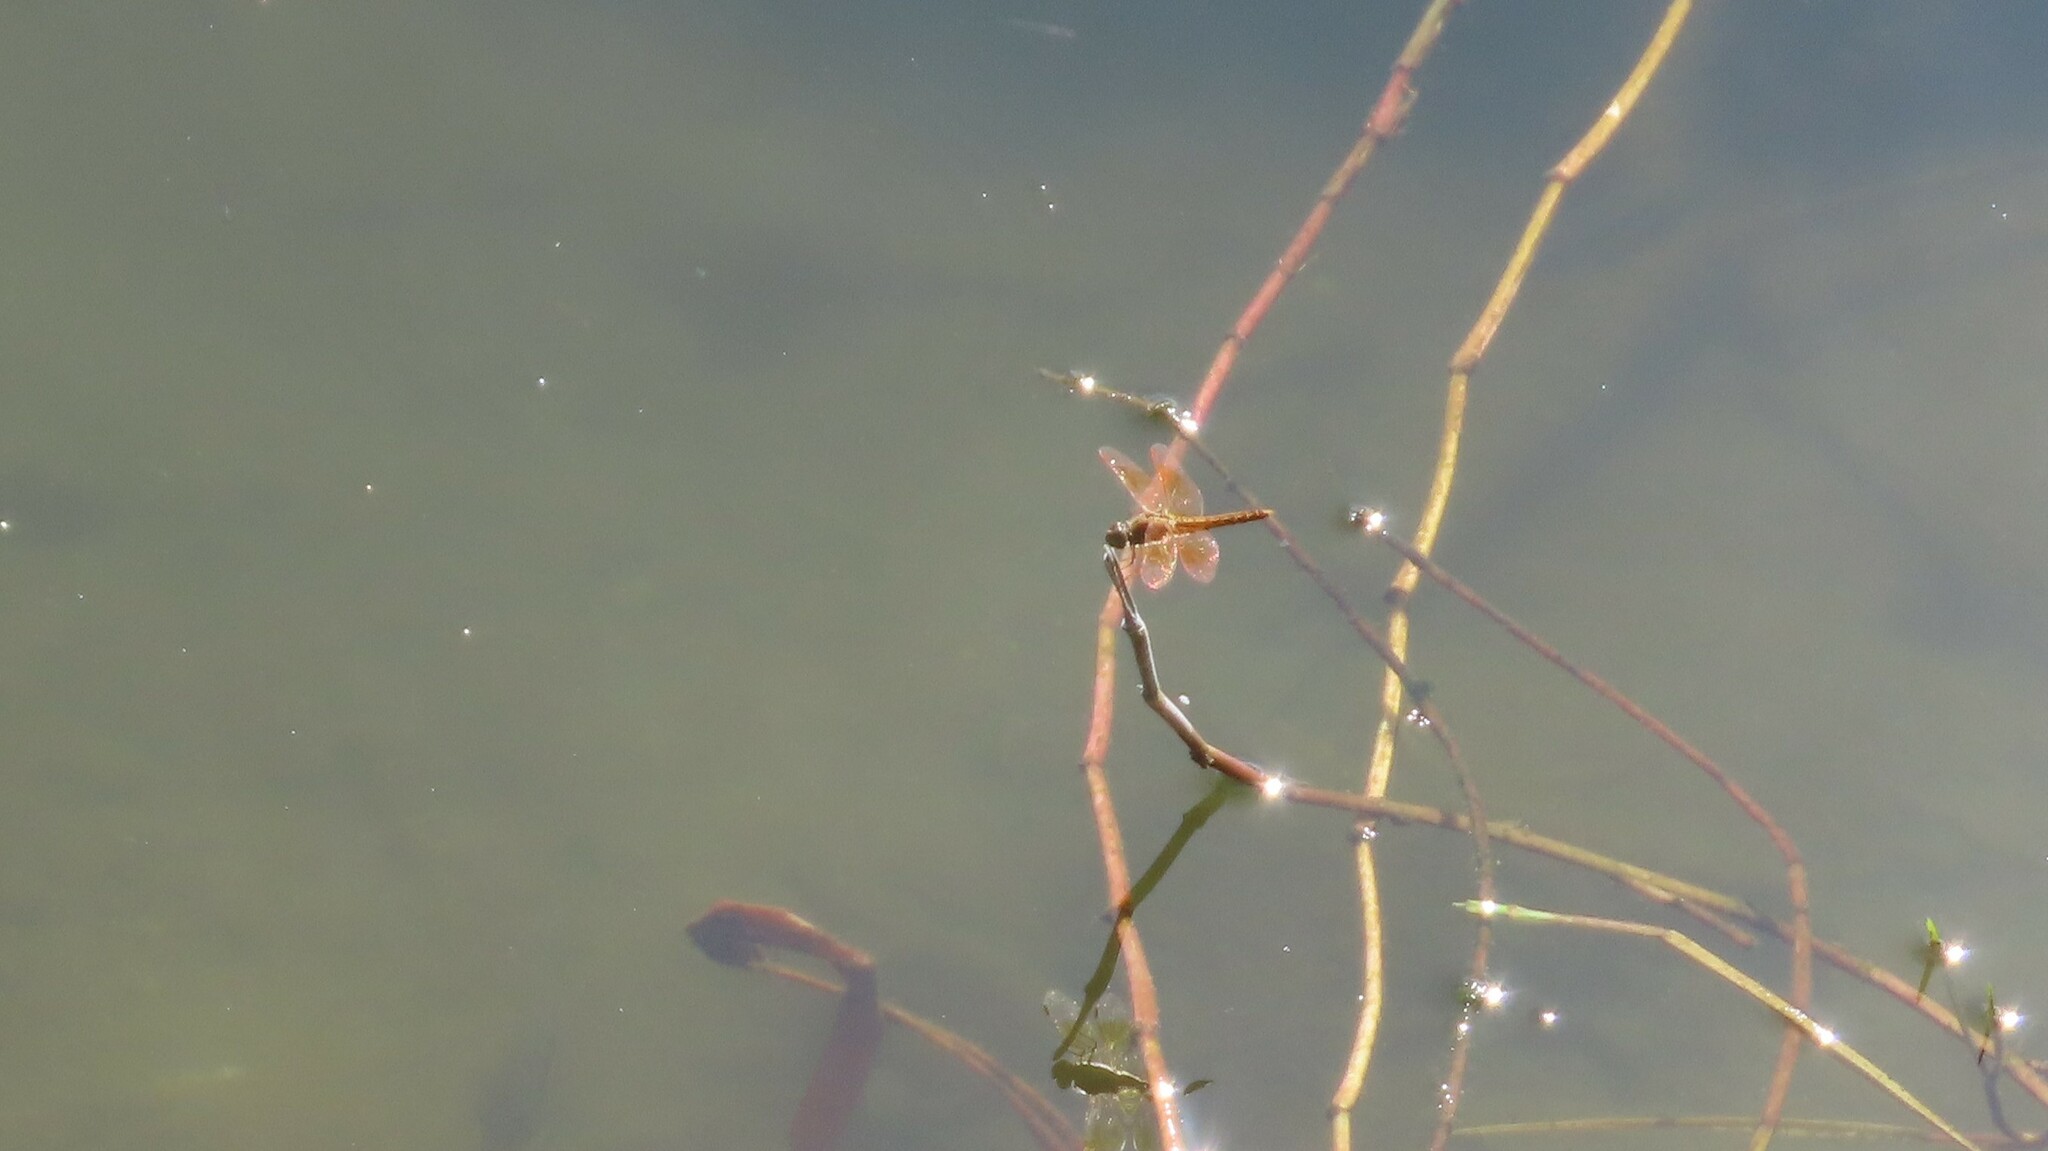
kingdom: Animalia
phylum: Arthropoda
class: Insecta
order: Odonata
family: Libellulidae
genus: Brachythemis
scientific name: Brachythemis contaminata
